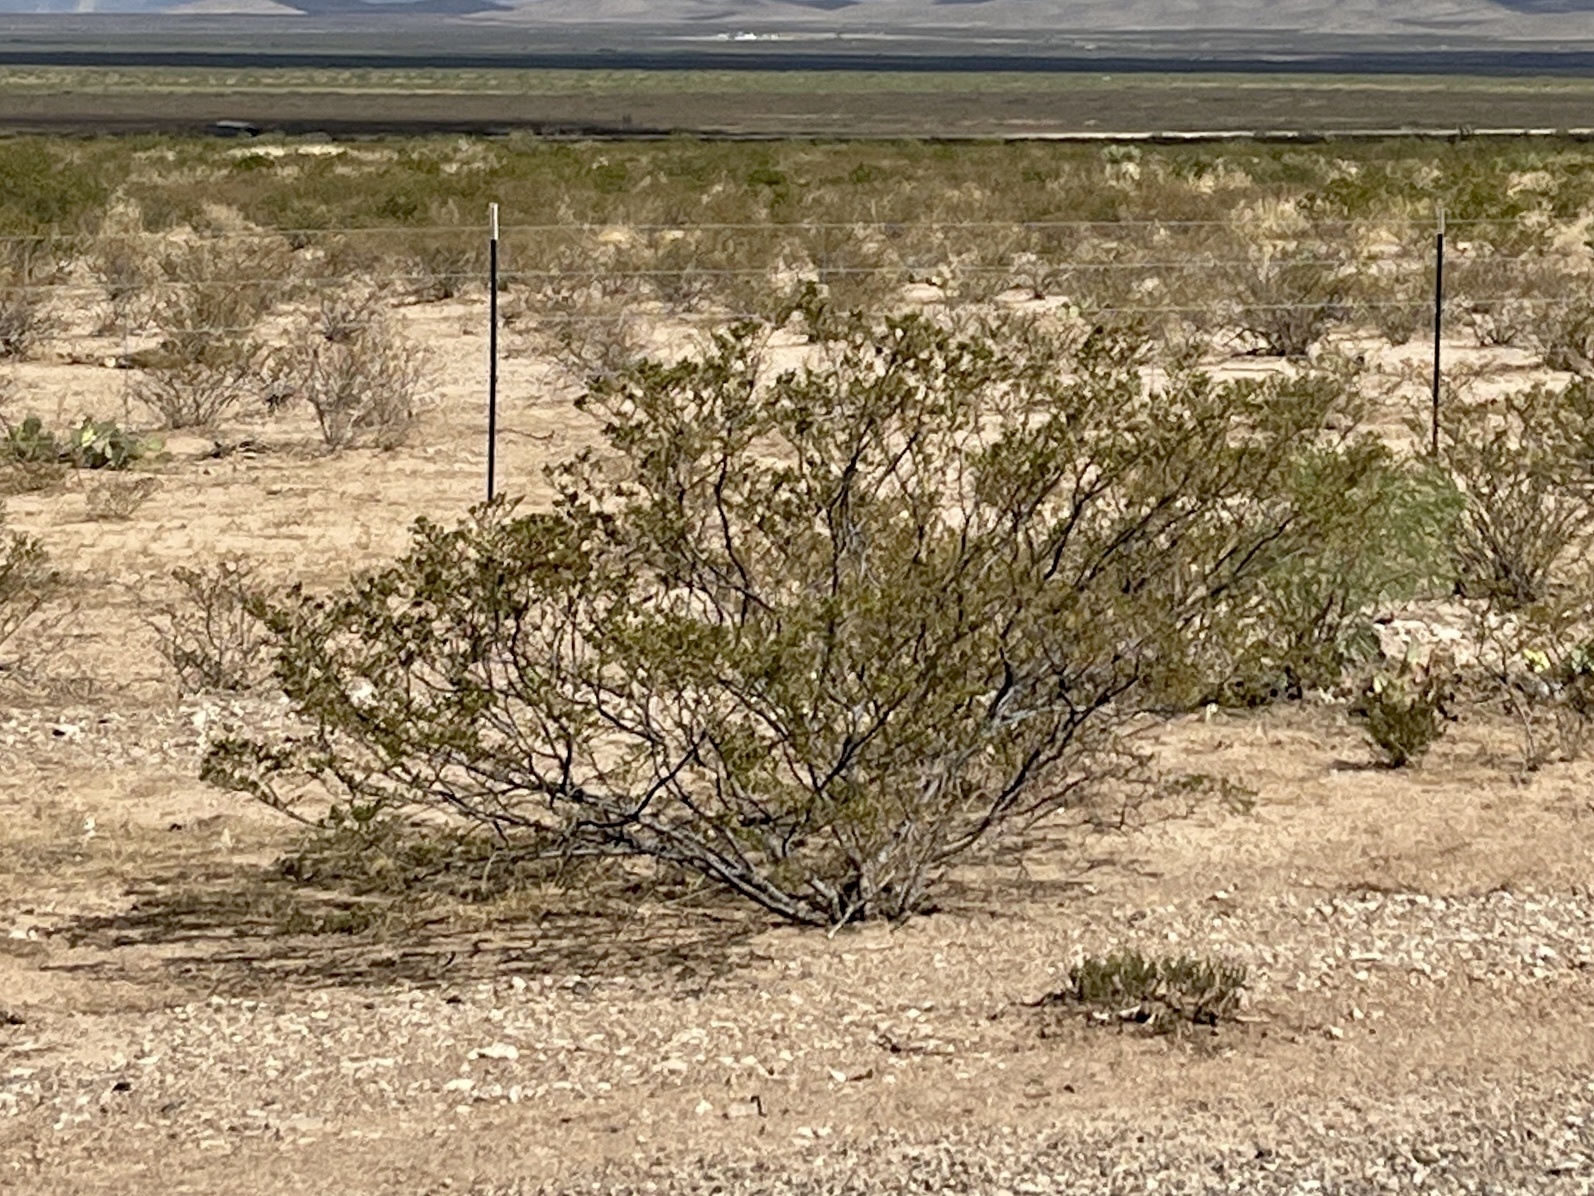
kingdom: Plantae
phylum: Tracheophyta
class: Magnoliopsida
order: Zygophyllales
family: Zygophyllaceae
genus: Larrea
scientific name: Larrea tridentata
